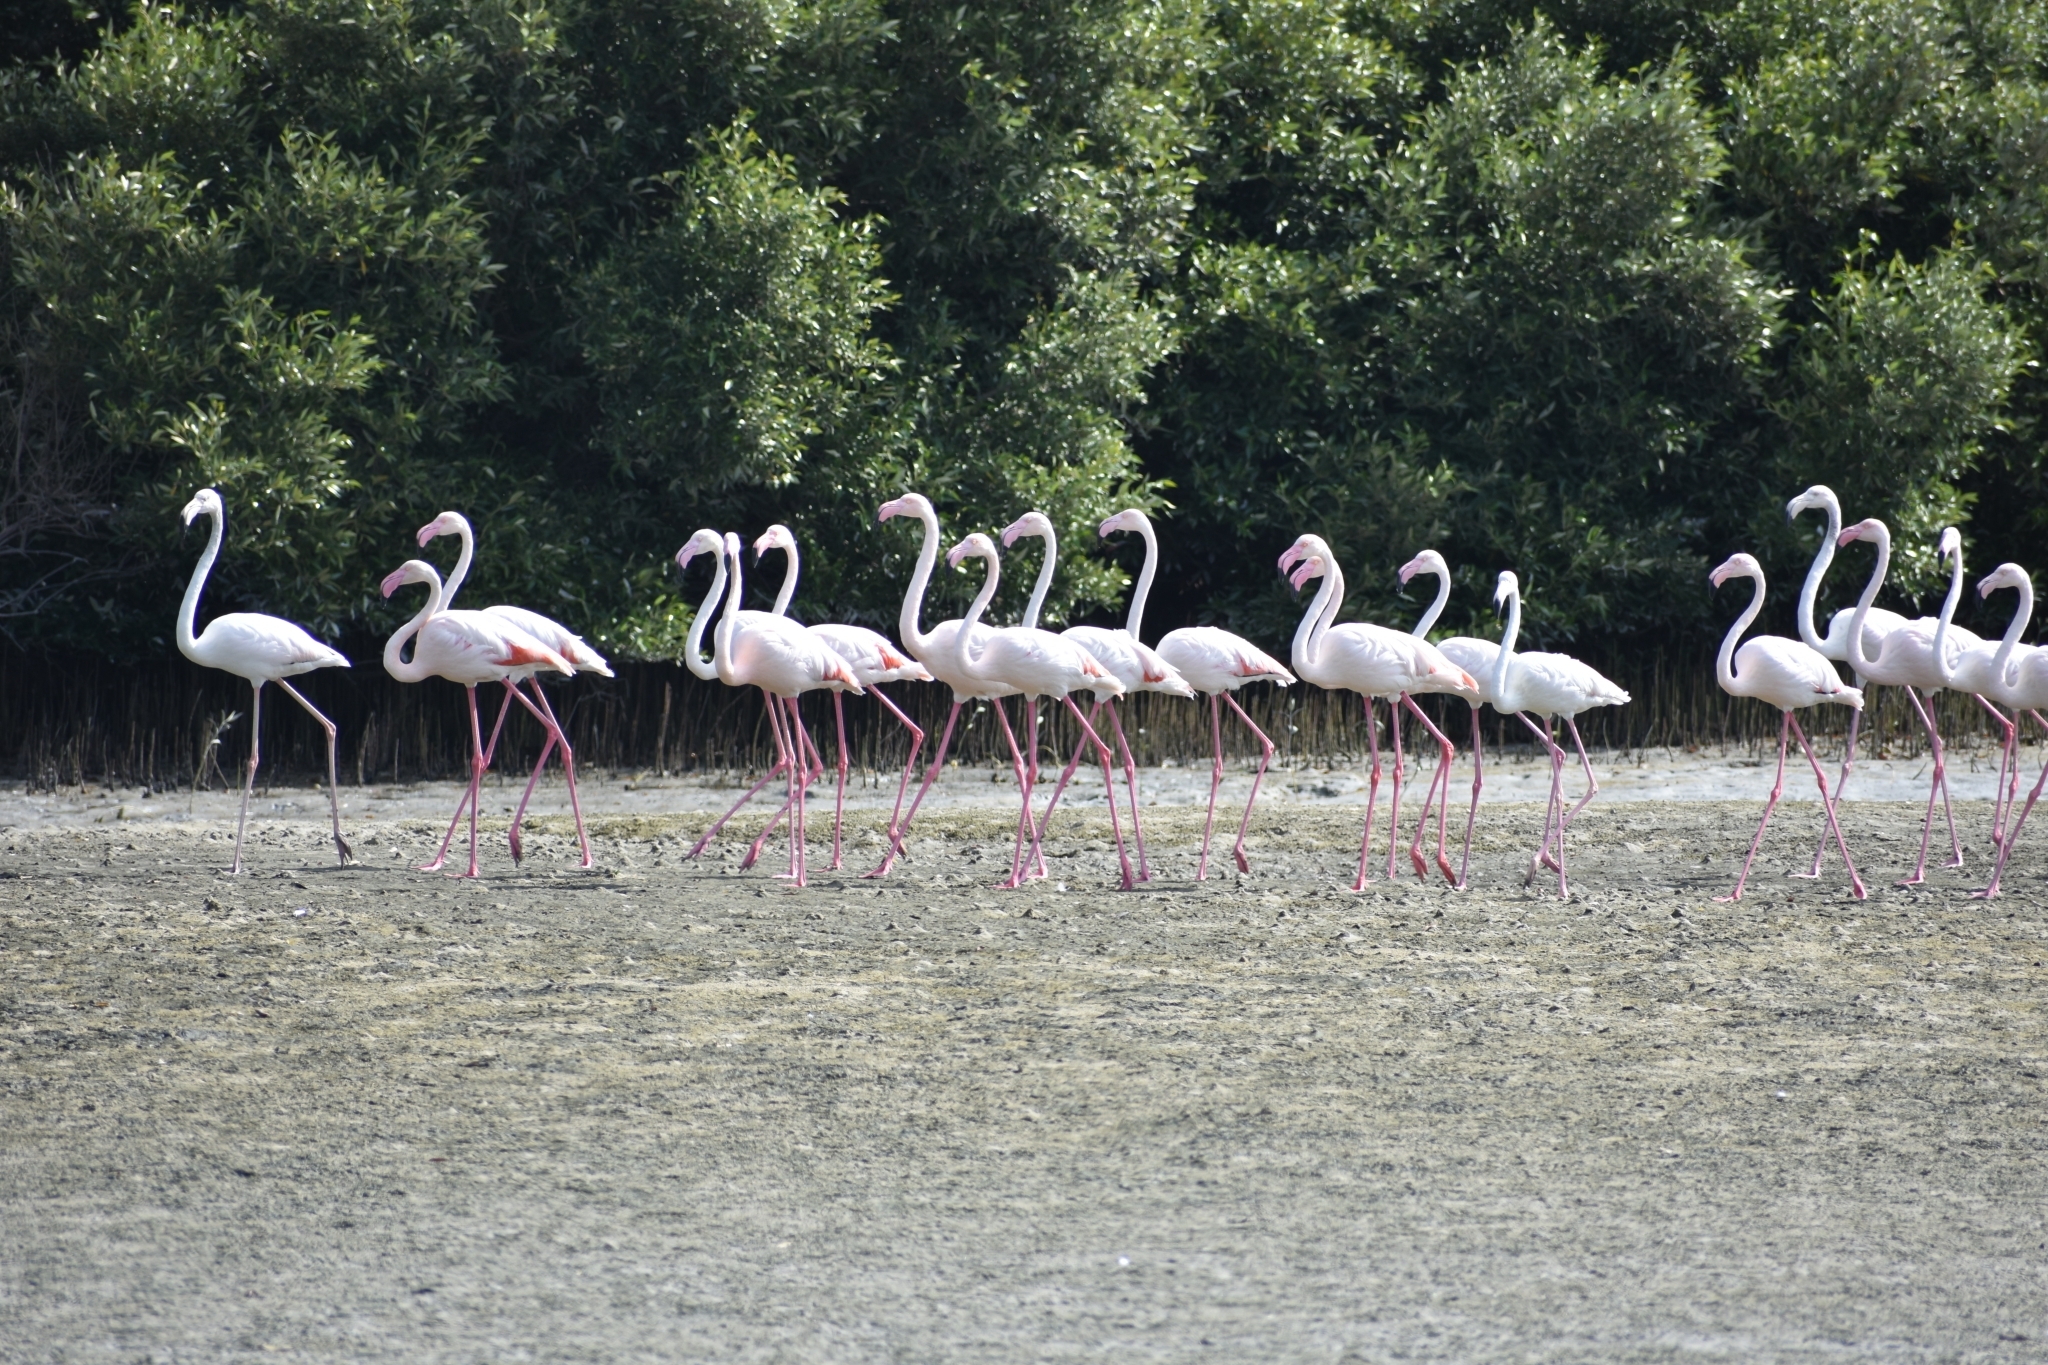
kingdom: Animalia
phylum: Chordata
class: Aves
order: Phoenicopteriformes
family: Phoenicopteridae
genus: Phoenicopterus
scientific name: Phoenicopterus roseus
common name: Greater flamingo
